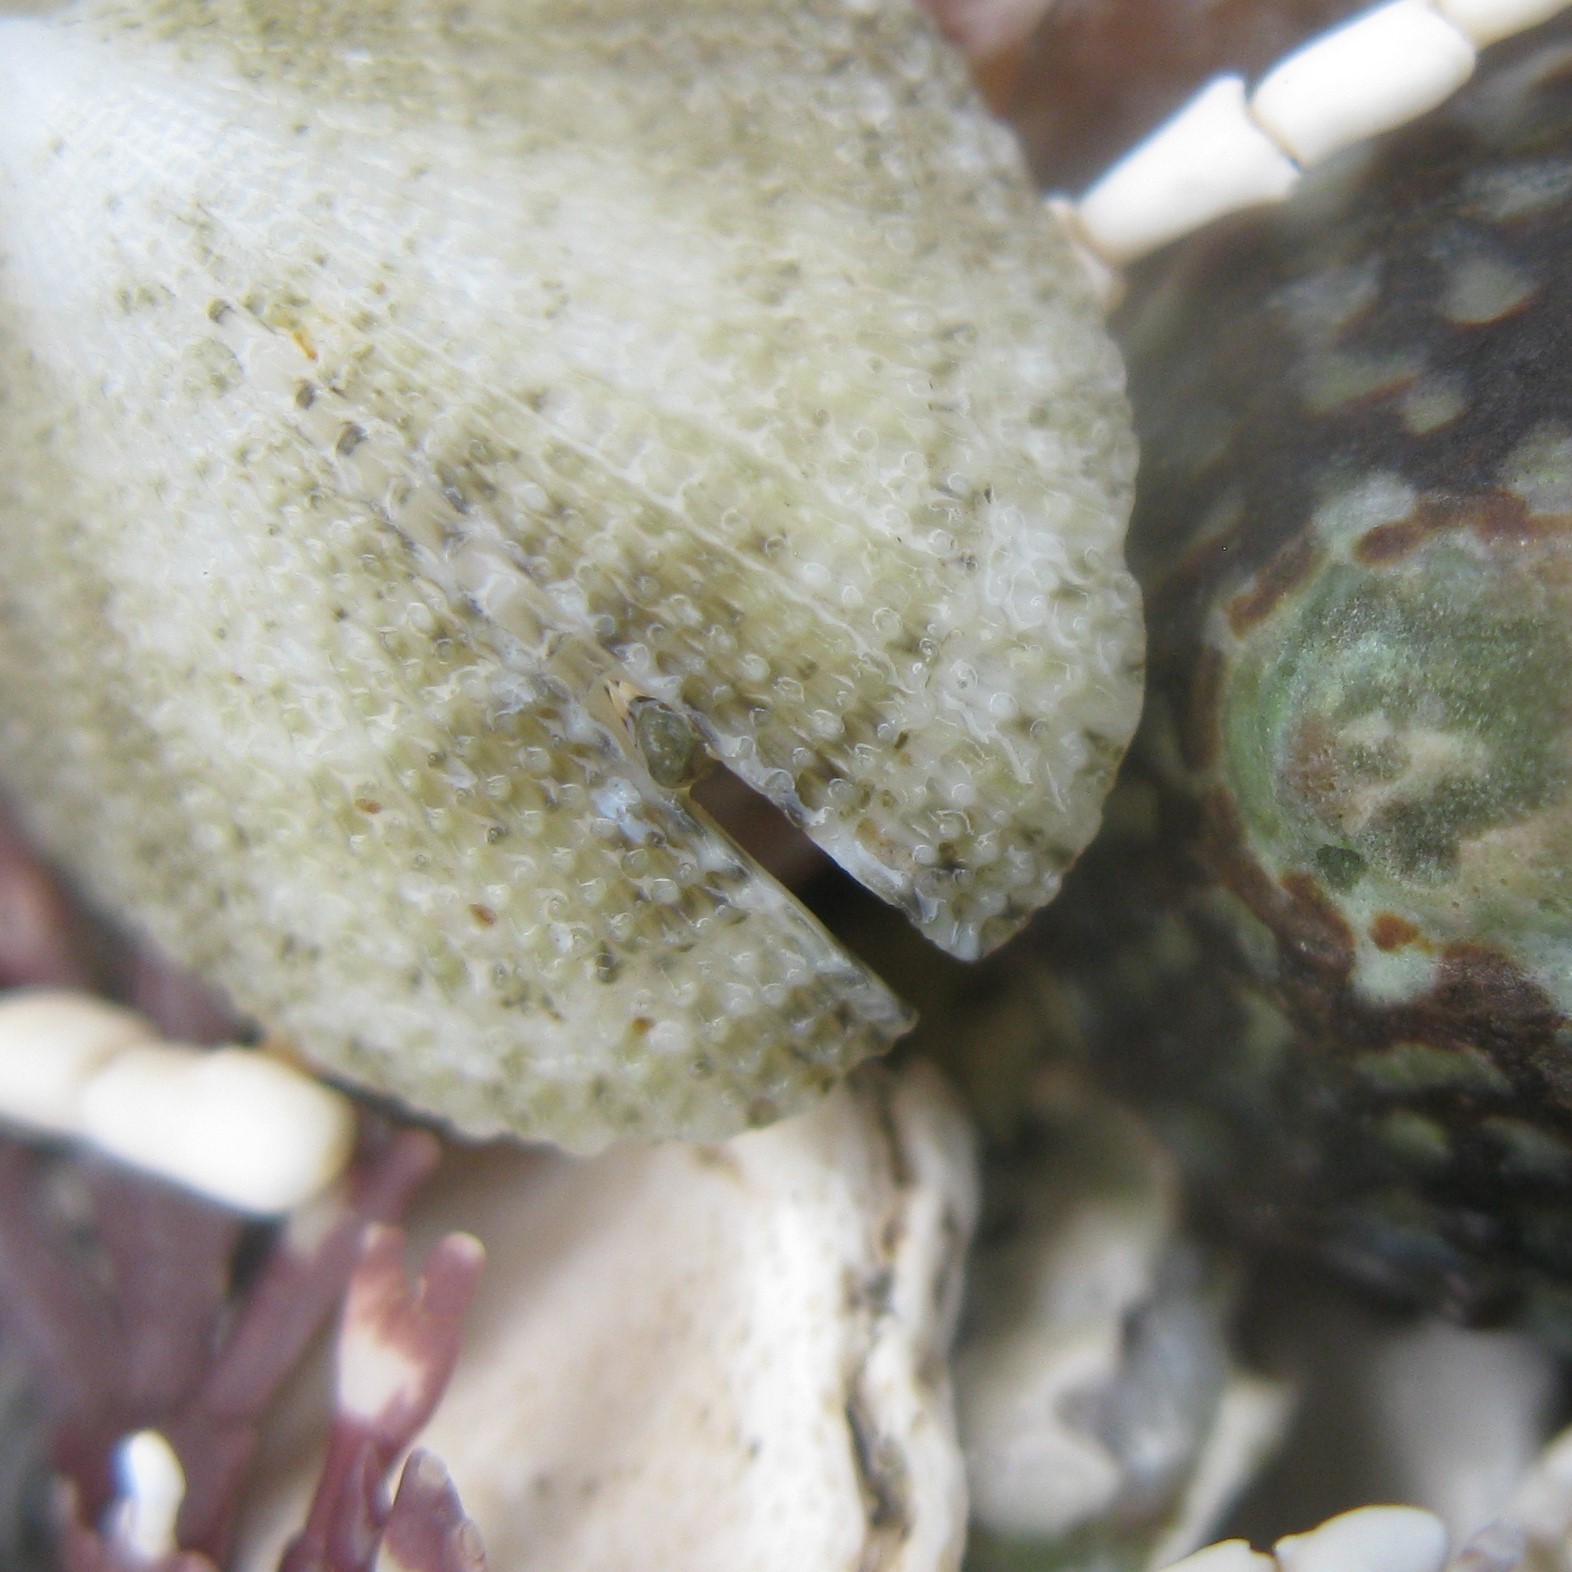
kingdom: Animalia
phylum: Mollusca
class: Gastropoda
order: Lepetellida
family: Fissurellidae
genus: Emarginula
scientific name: Emarginula striatula
